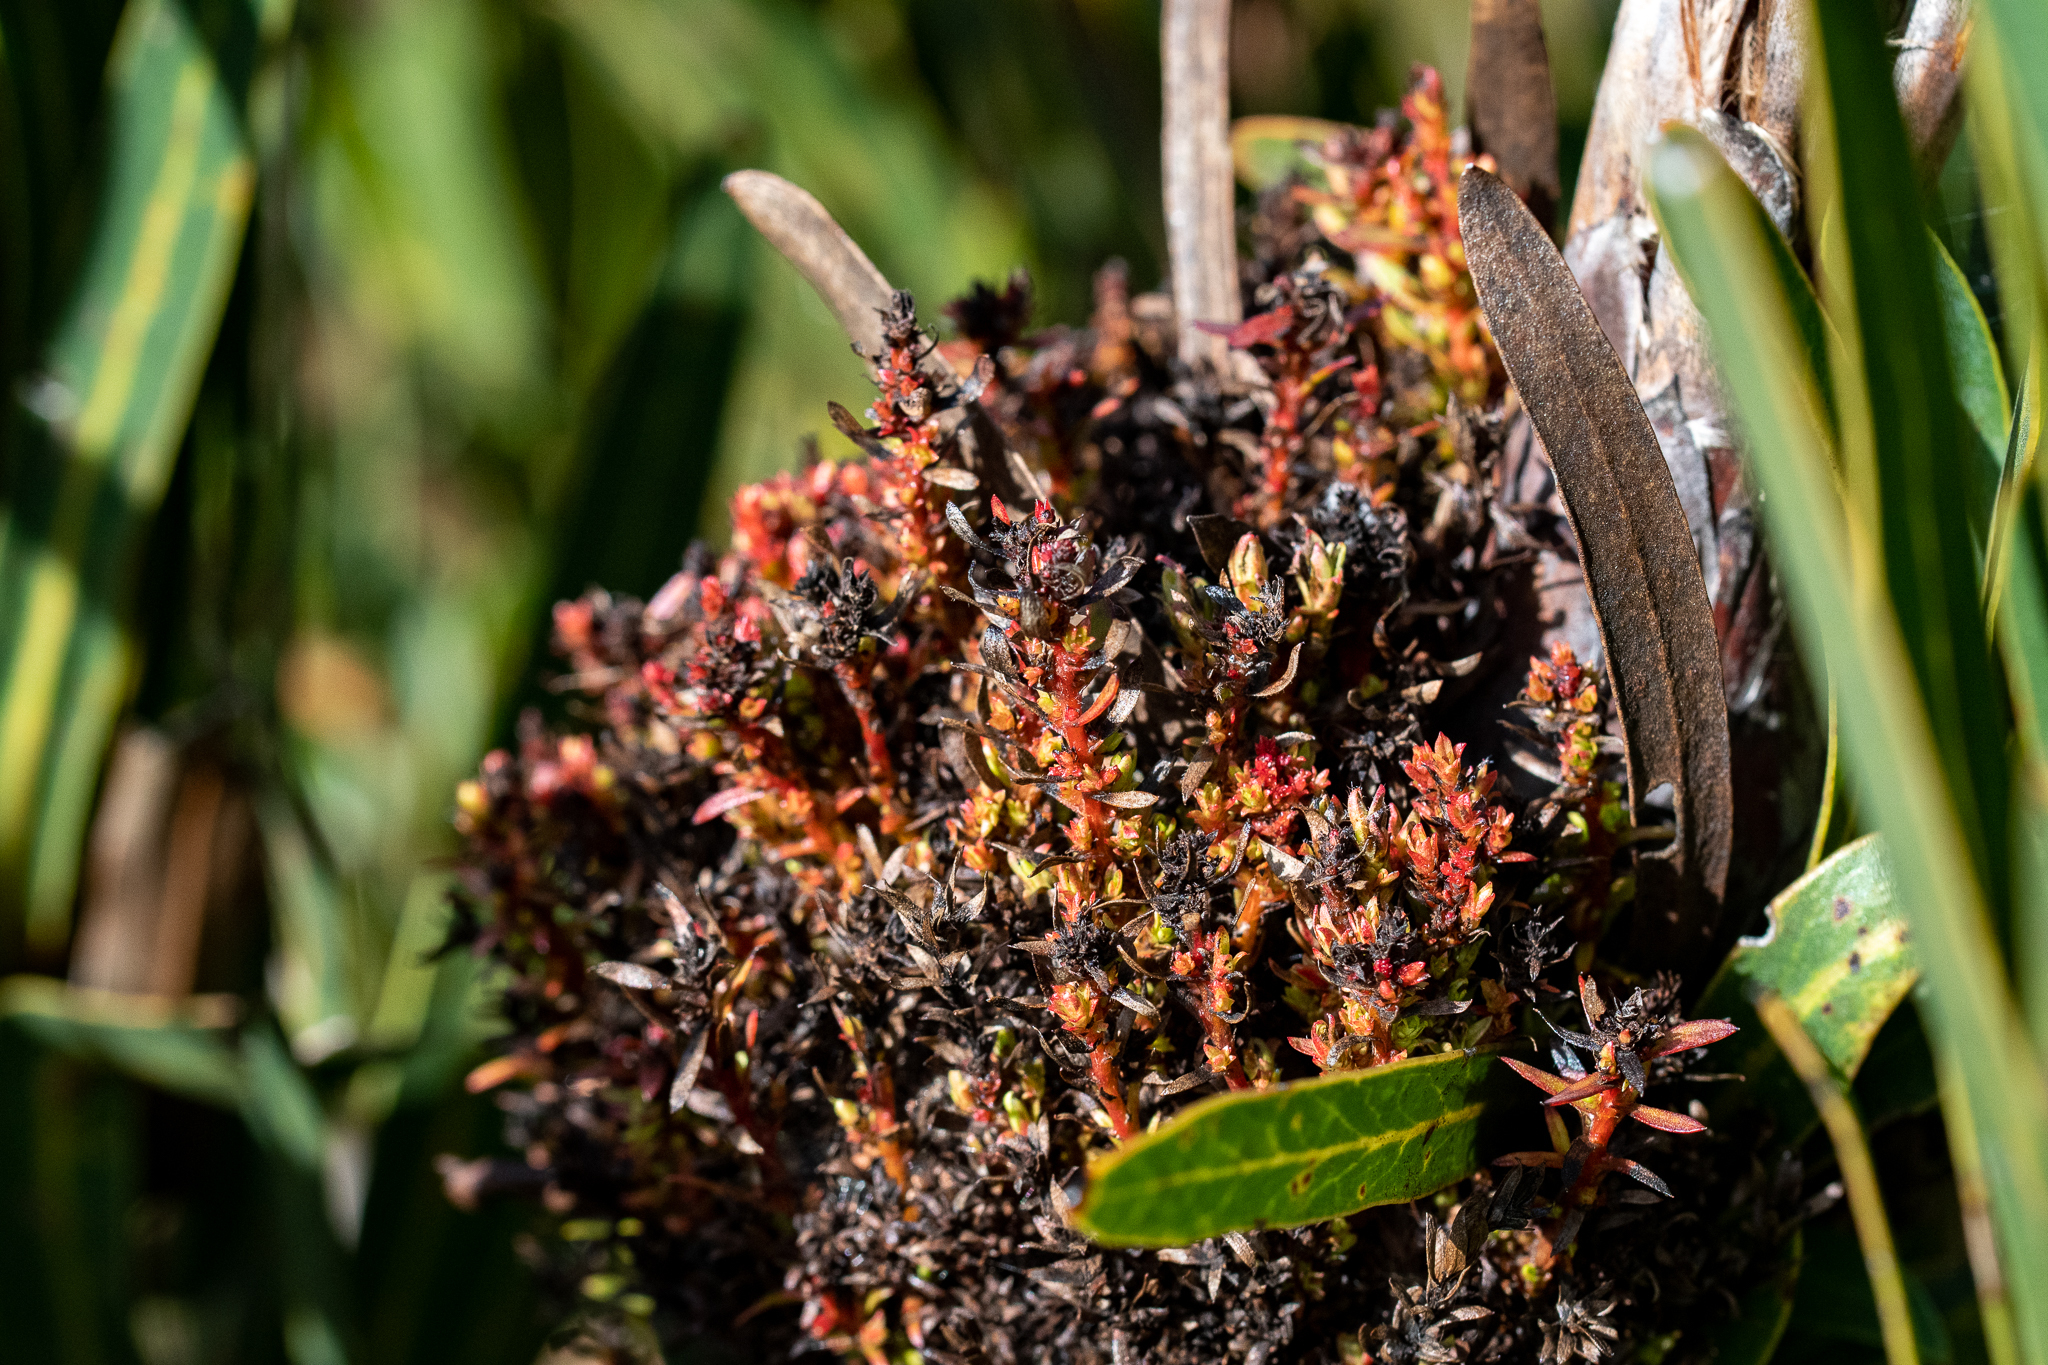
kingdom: Bacteria
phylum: Firmicutes
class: Bacilli
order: Acholeplasmatales
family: Acholeplasmataceae
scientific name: Acholeplasmataceae
